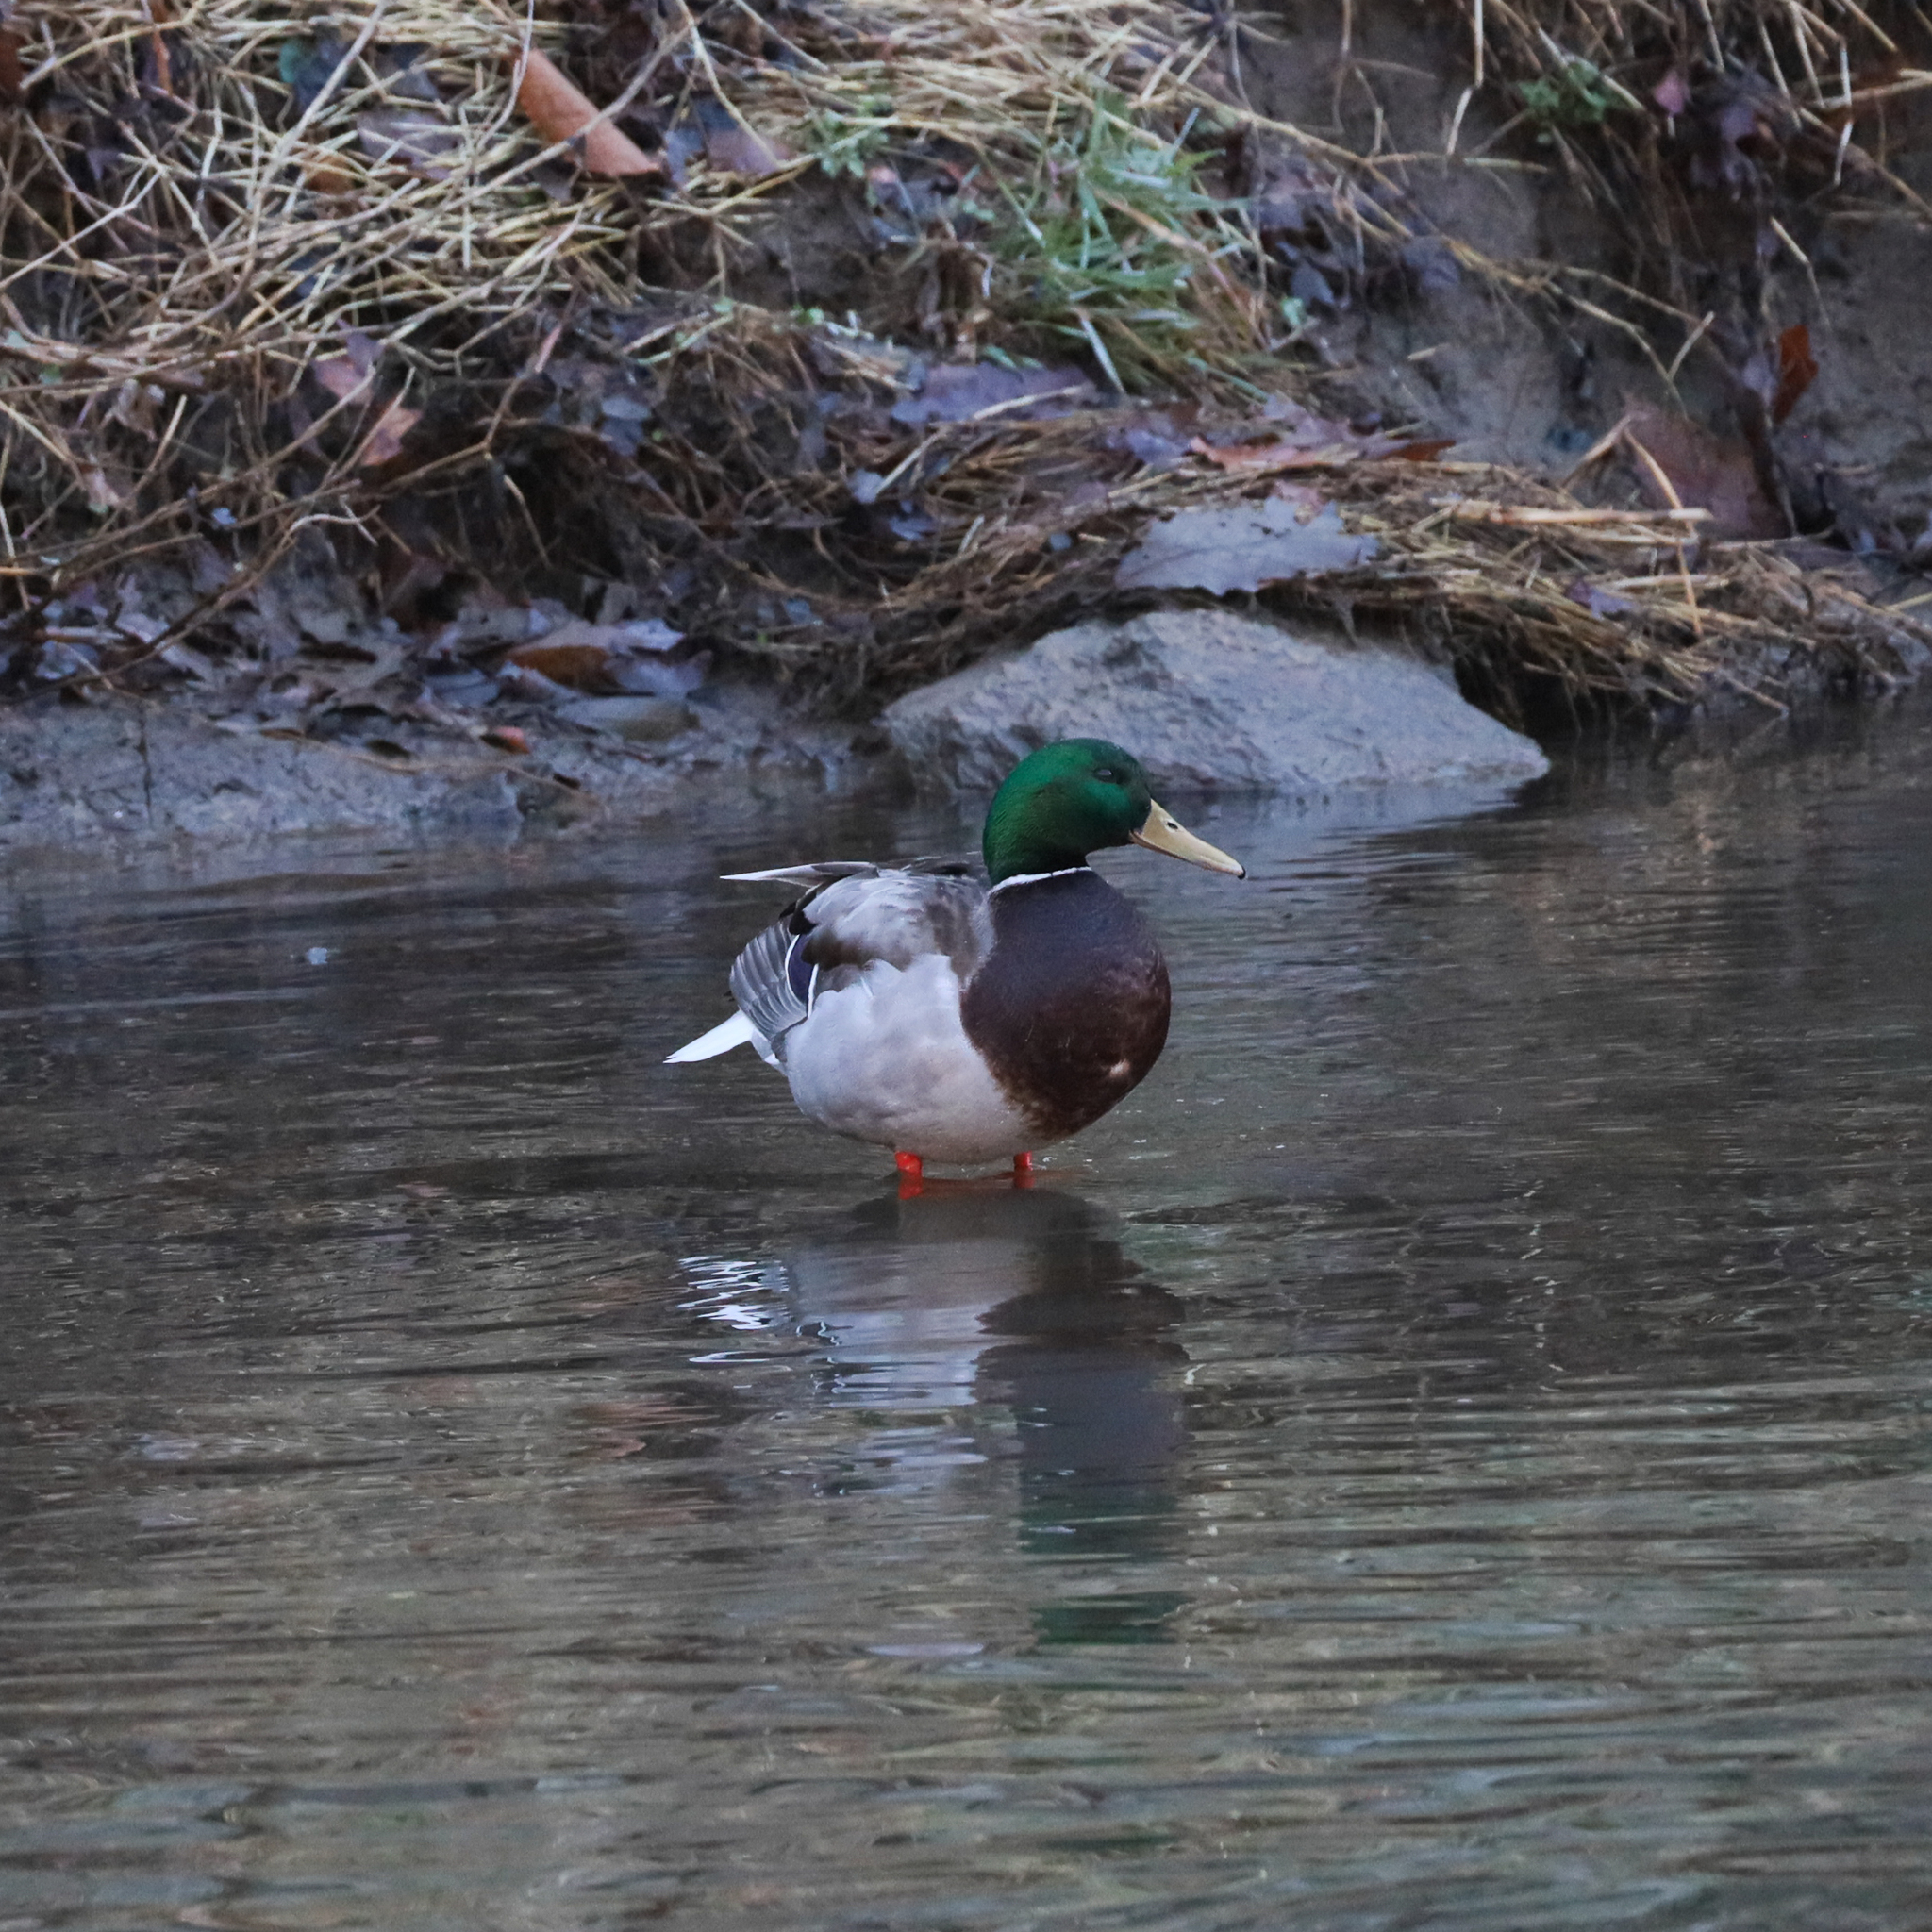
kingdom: Animalia
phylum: Chordata
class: Aves
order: Anseriformes
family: Anatidae
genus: Anas
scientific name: Anas platyrhynchos
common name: Mallard
